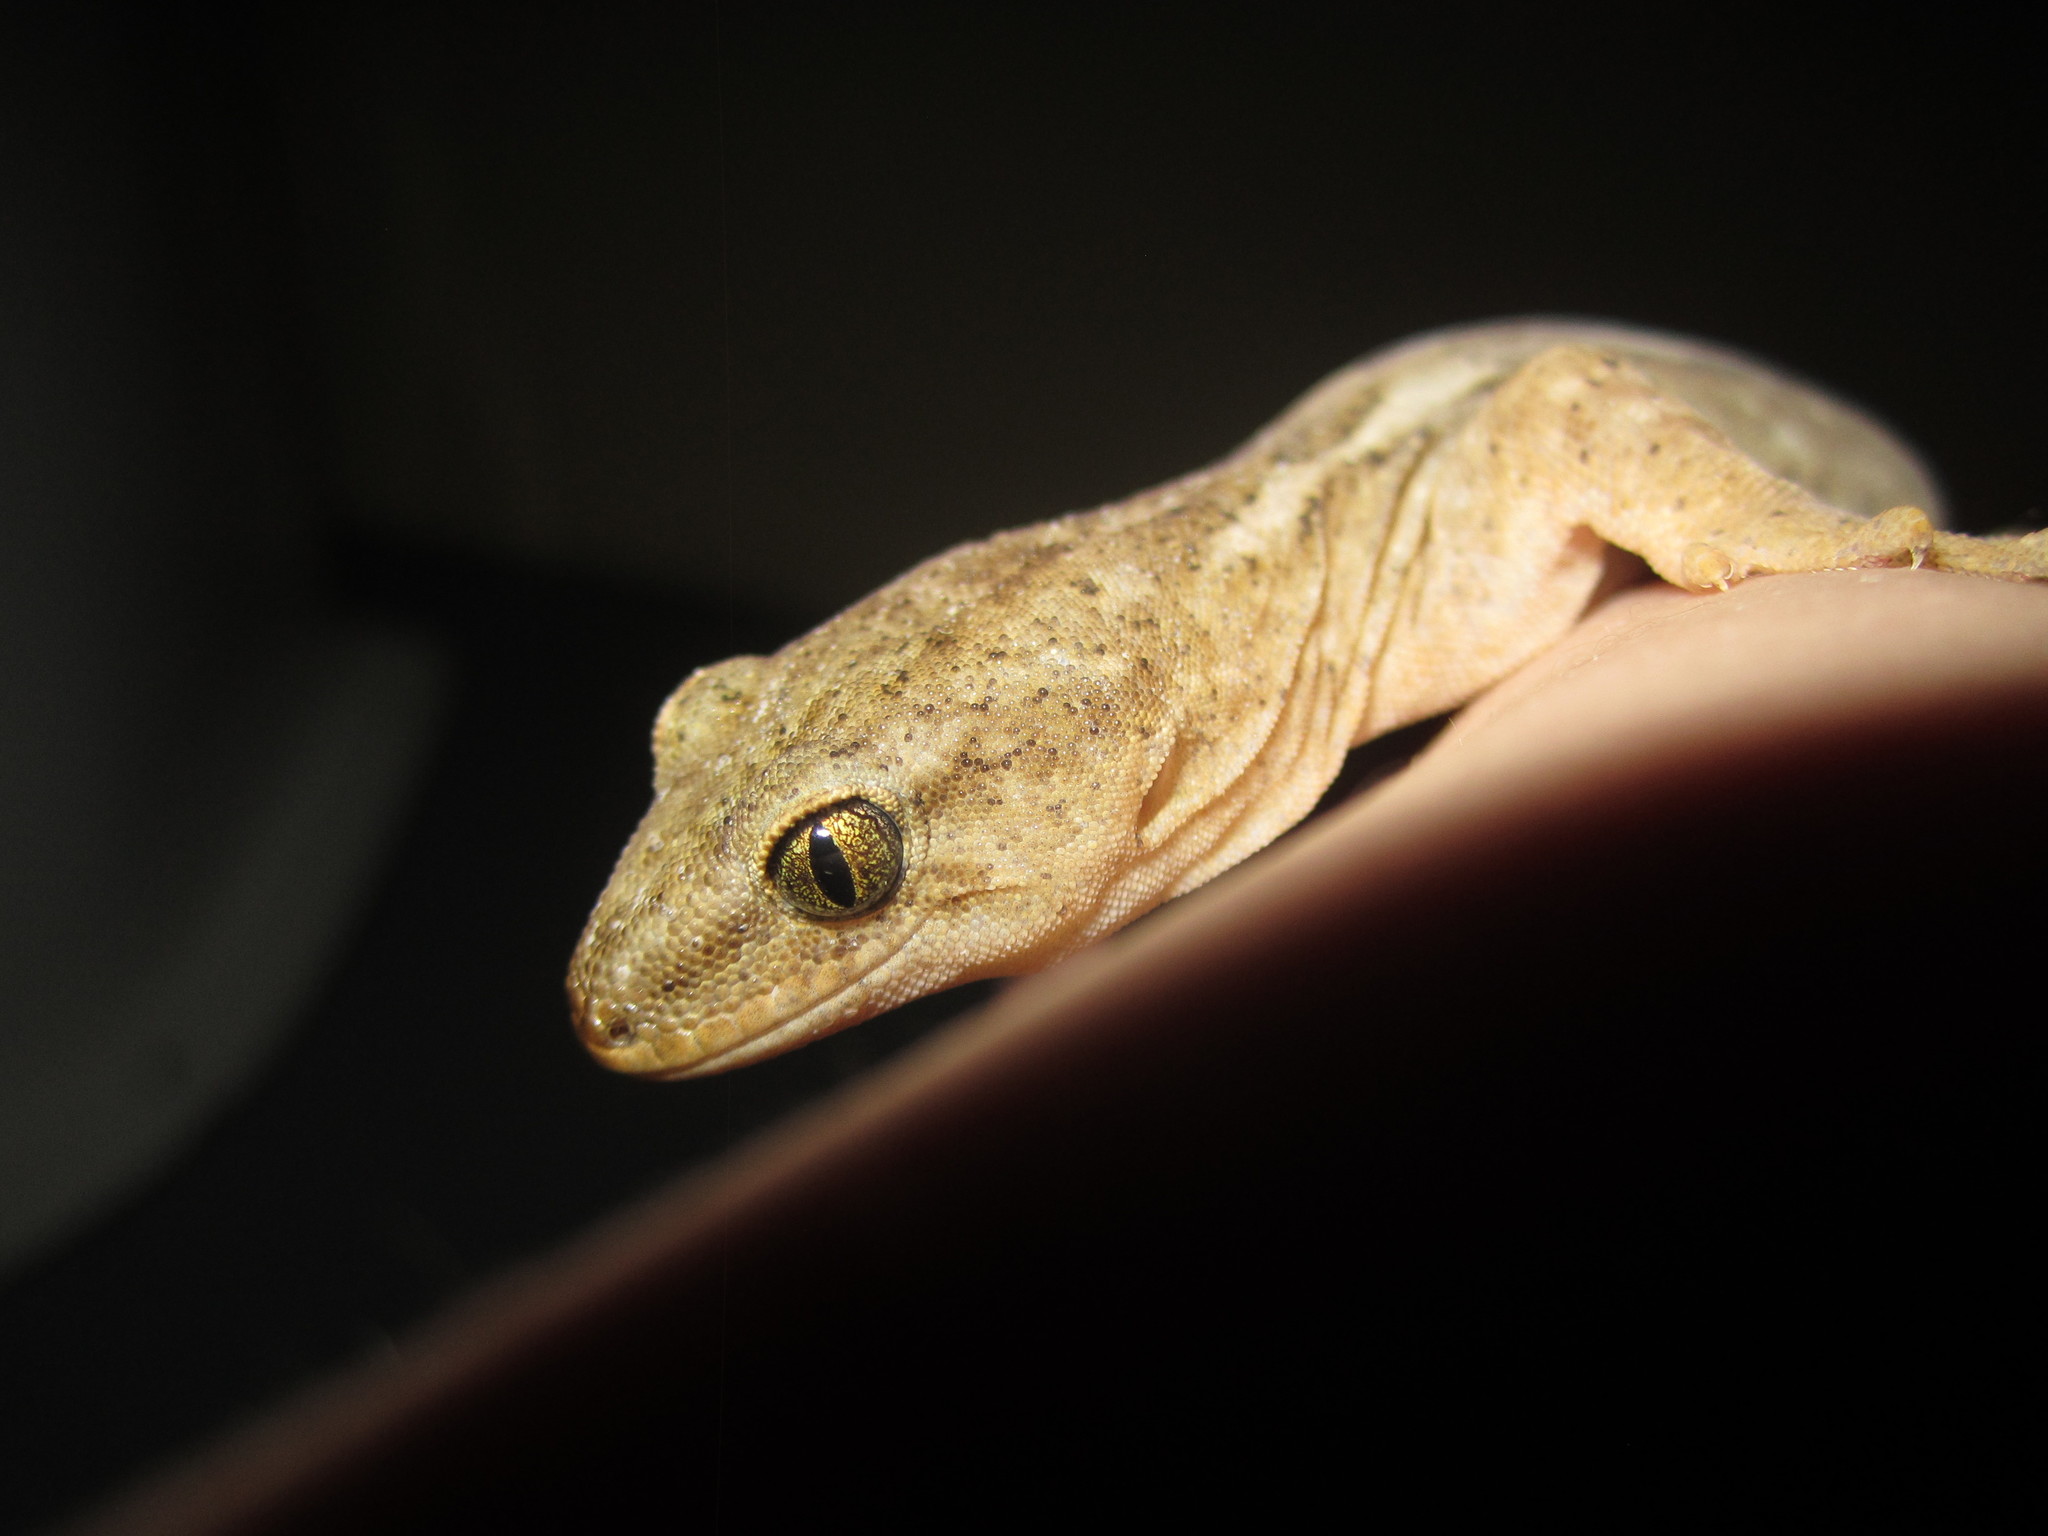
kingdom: Animalia
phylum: Chordata
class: Squamata
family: Diplodactylidae
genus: Woodworthia
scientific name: Woodworthia maculata
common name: Raukawa gecko
